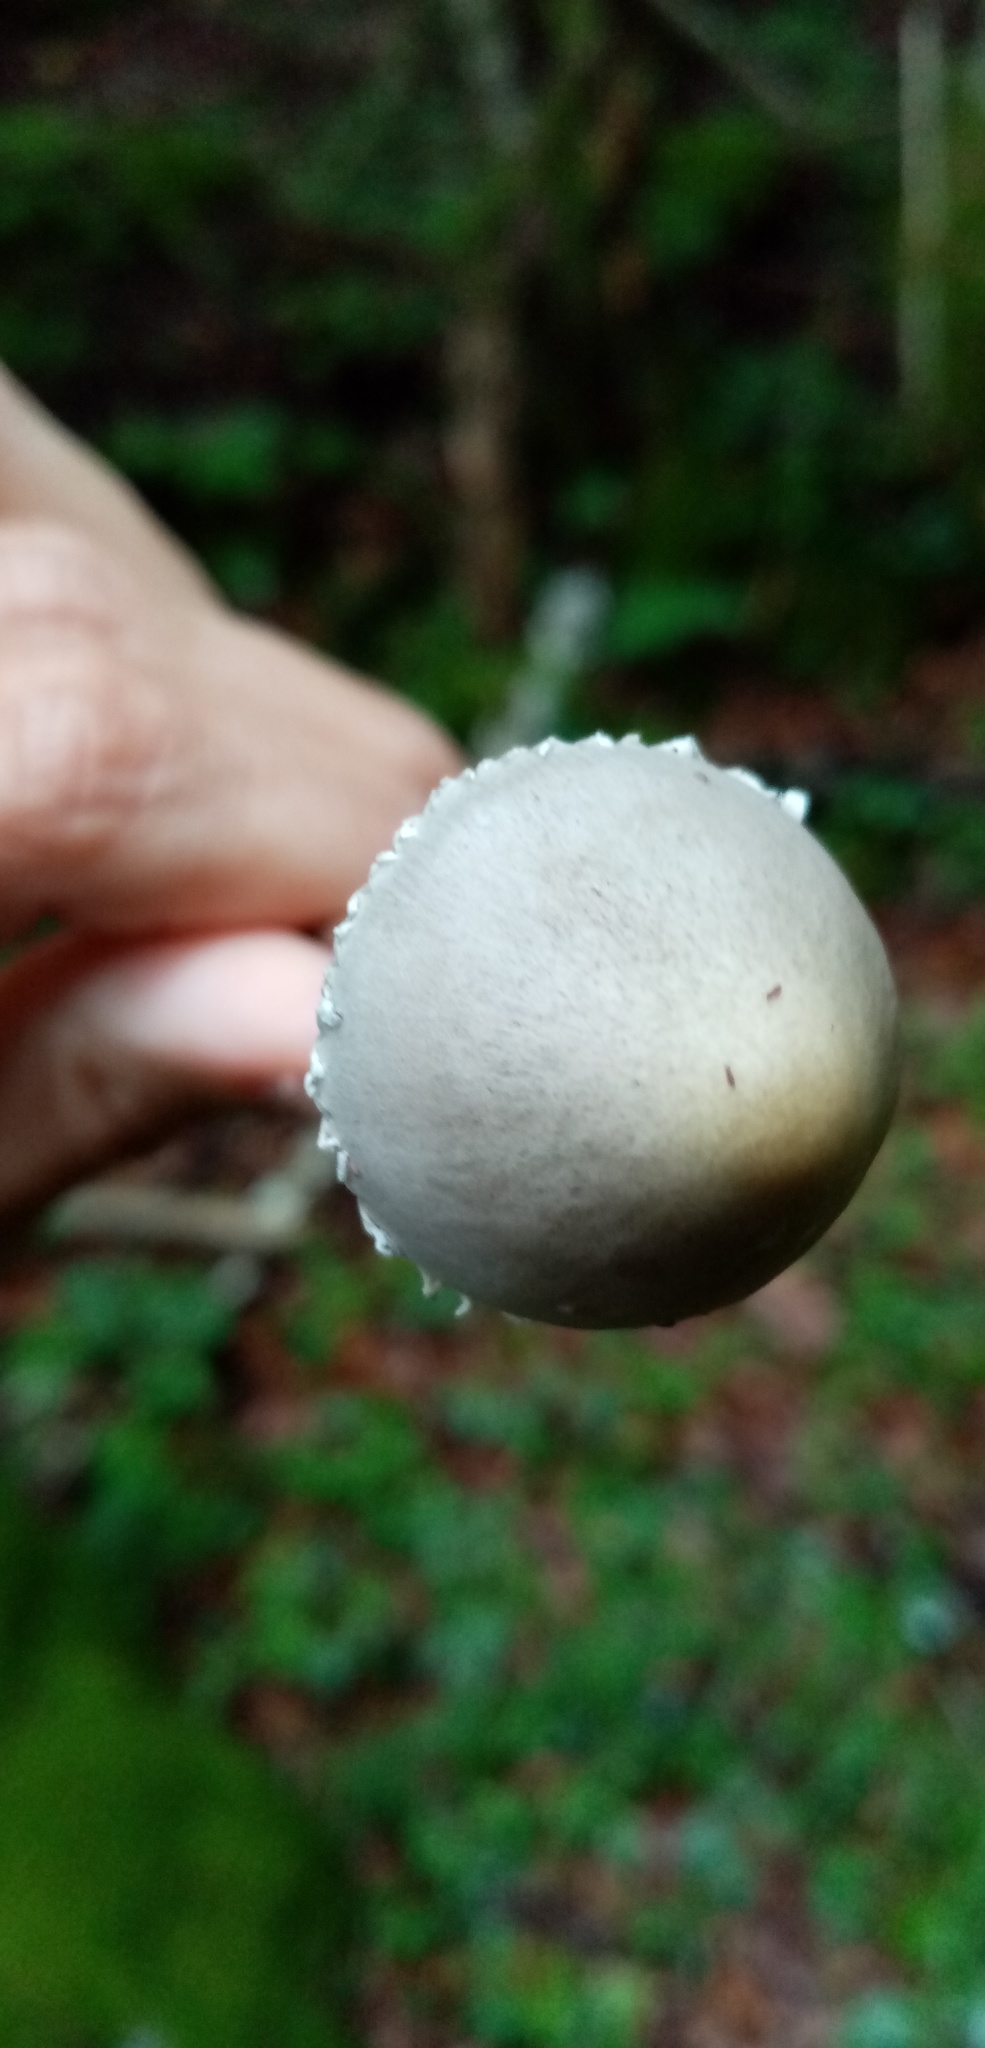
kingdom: Fungi
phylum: Basidiomycota
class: Agaricomycetes
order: Agaricales
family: Bolbitiaceae
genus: Panaeolus
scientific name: Panaeolus papilionaceus
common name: Petticoat mottlegill
